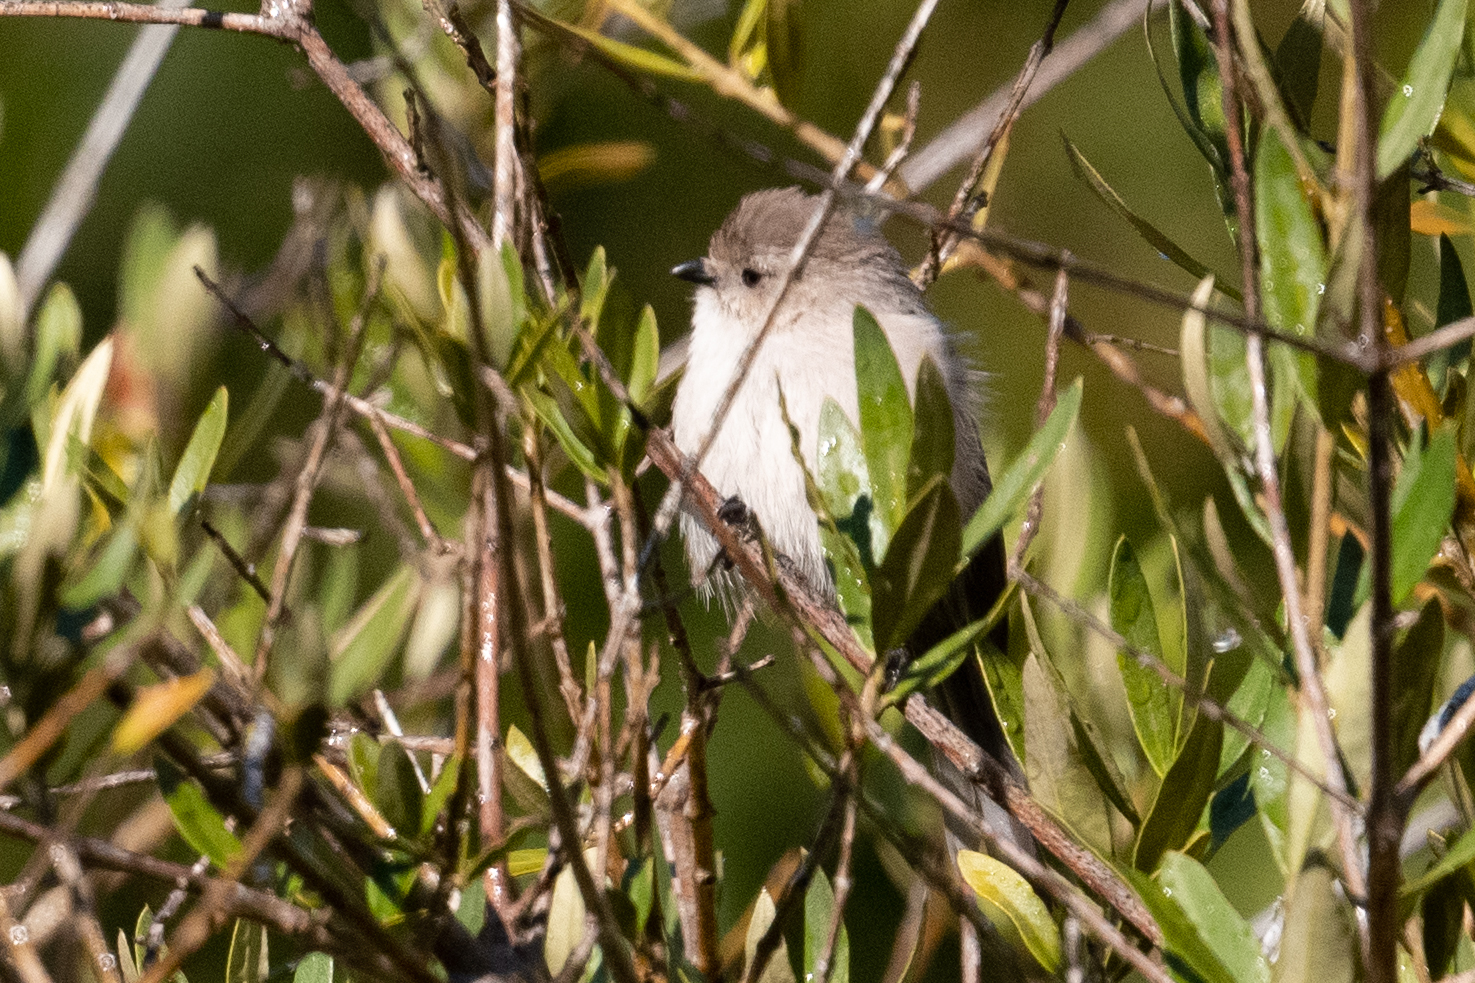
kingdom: Animalia
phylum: Chordata
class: Aves
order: Passeriformes
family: Aegithalidae
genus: Psaltriparus
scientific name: Psaltriparus minimus
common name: American bushtit
